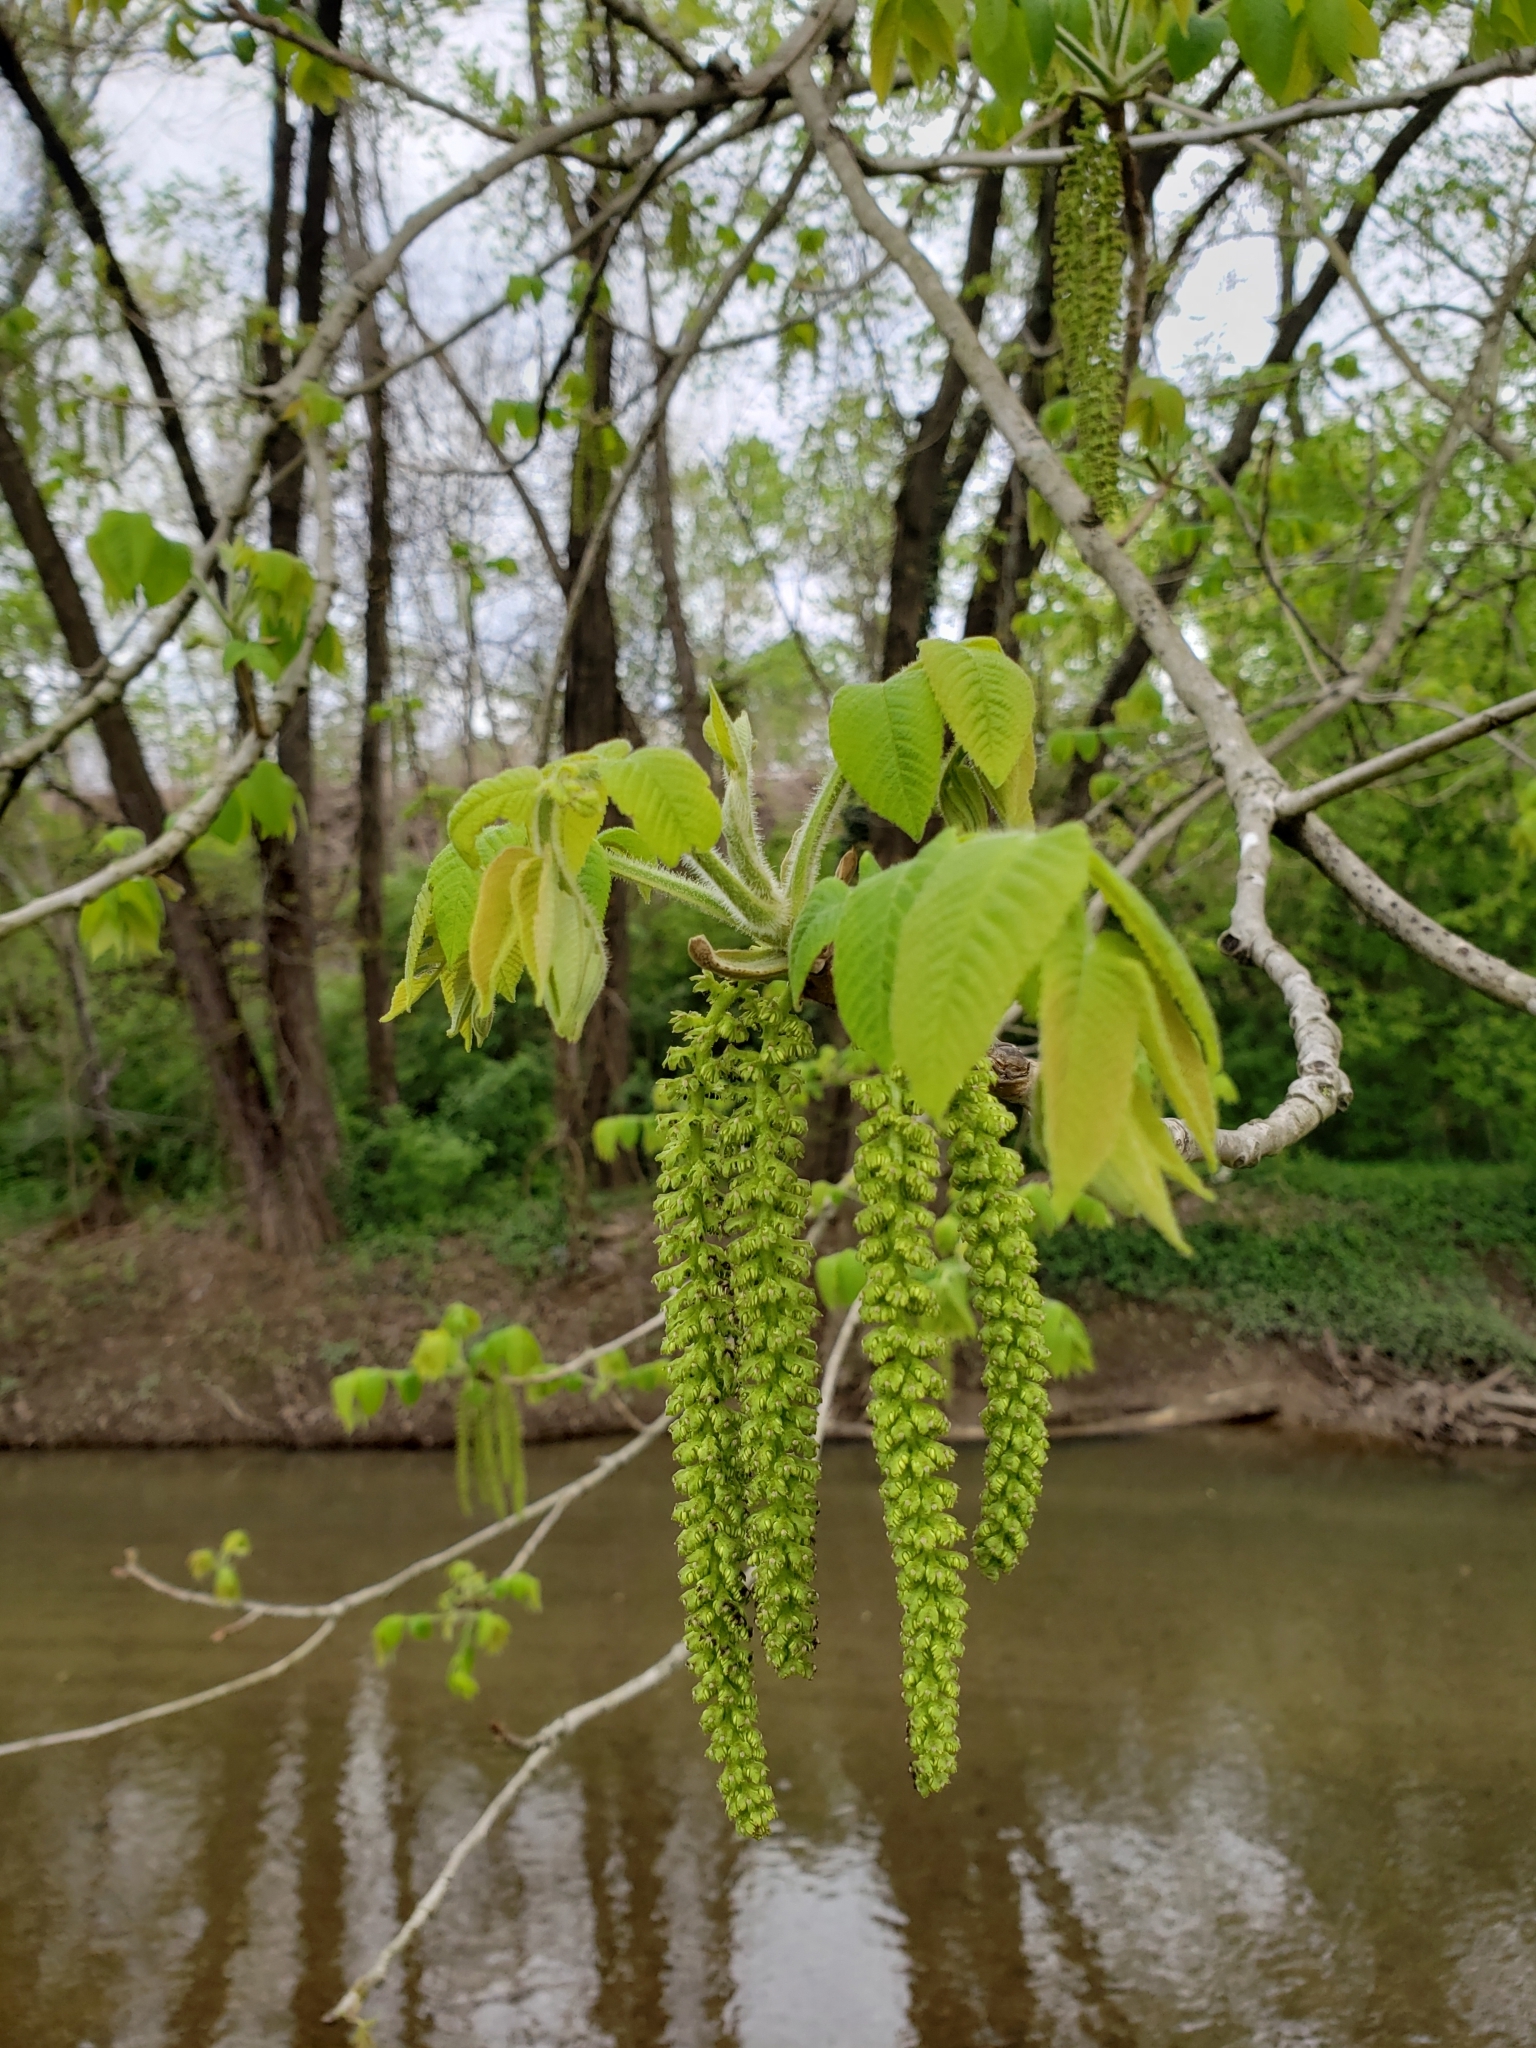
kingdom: Plantae
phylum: Tracheophyta
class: Magnoliopsida
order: Fagales
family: Juglandaceae
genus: Juglans
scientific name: Juglans nigra
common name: Black walnut
